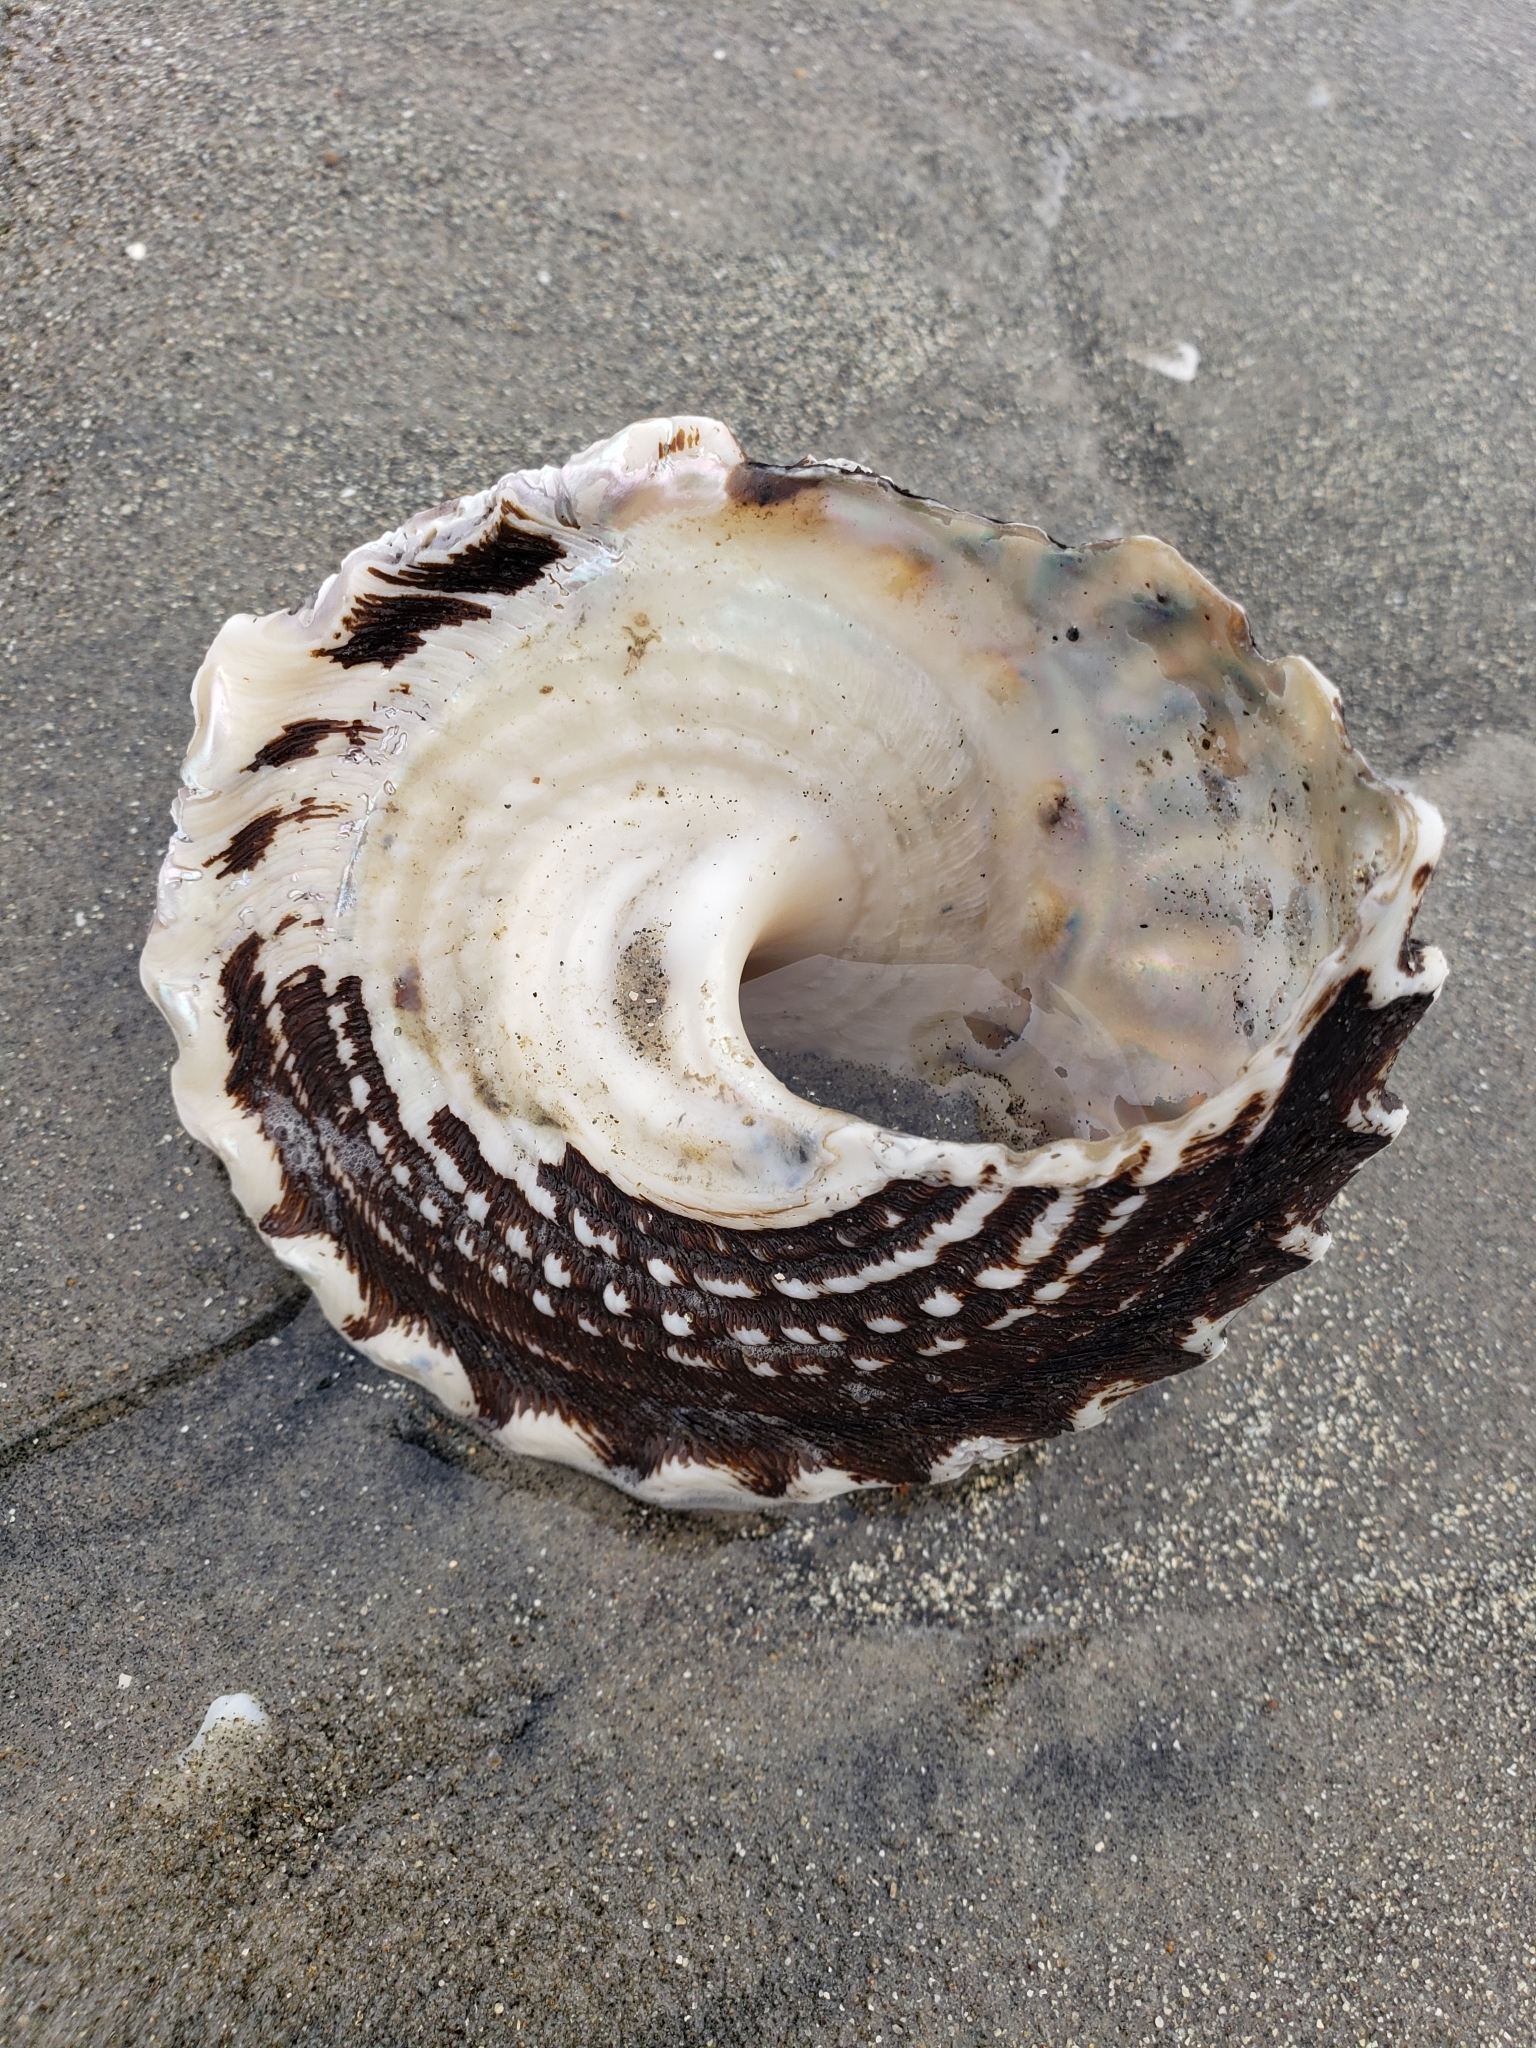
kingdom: Animalia
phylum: Mollusca
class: Gastropoda
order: Trochida
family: Turbinidae
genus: Megastraea
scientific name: Megastraea undosa
